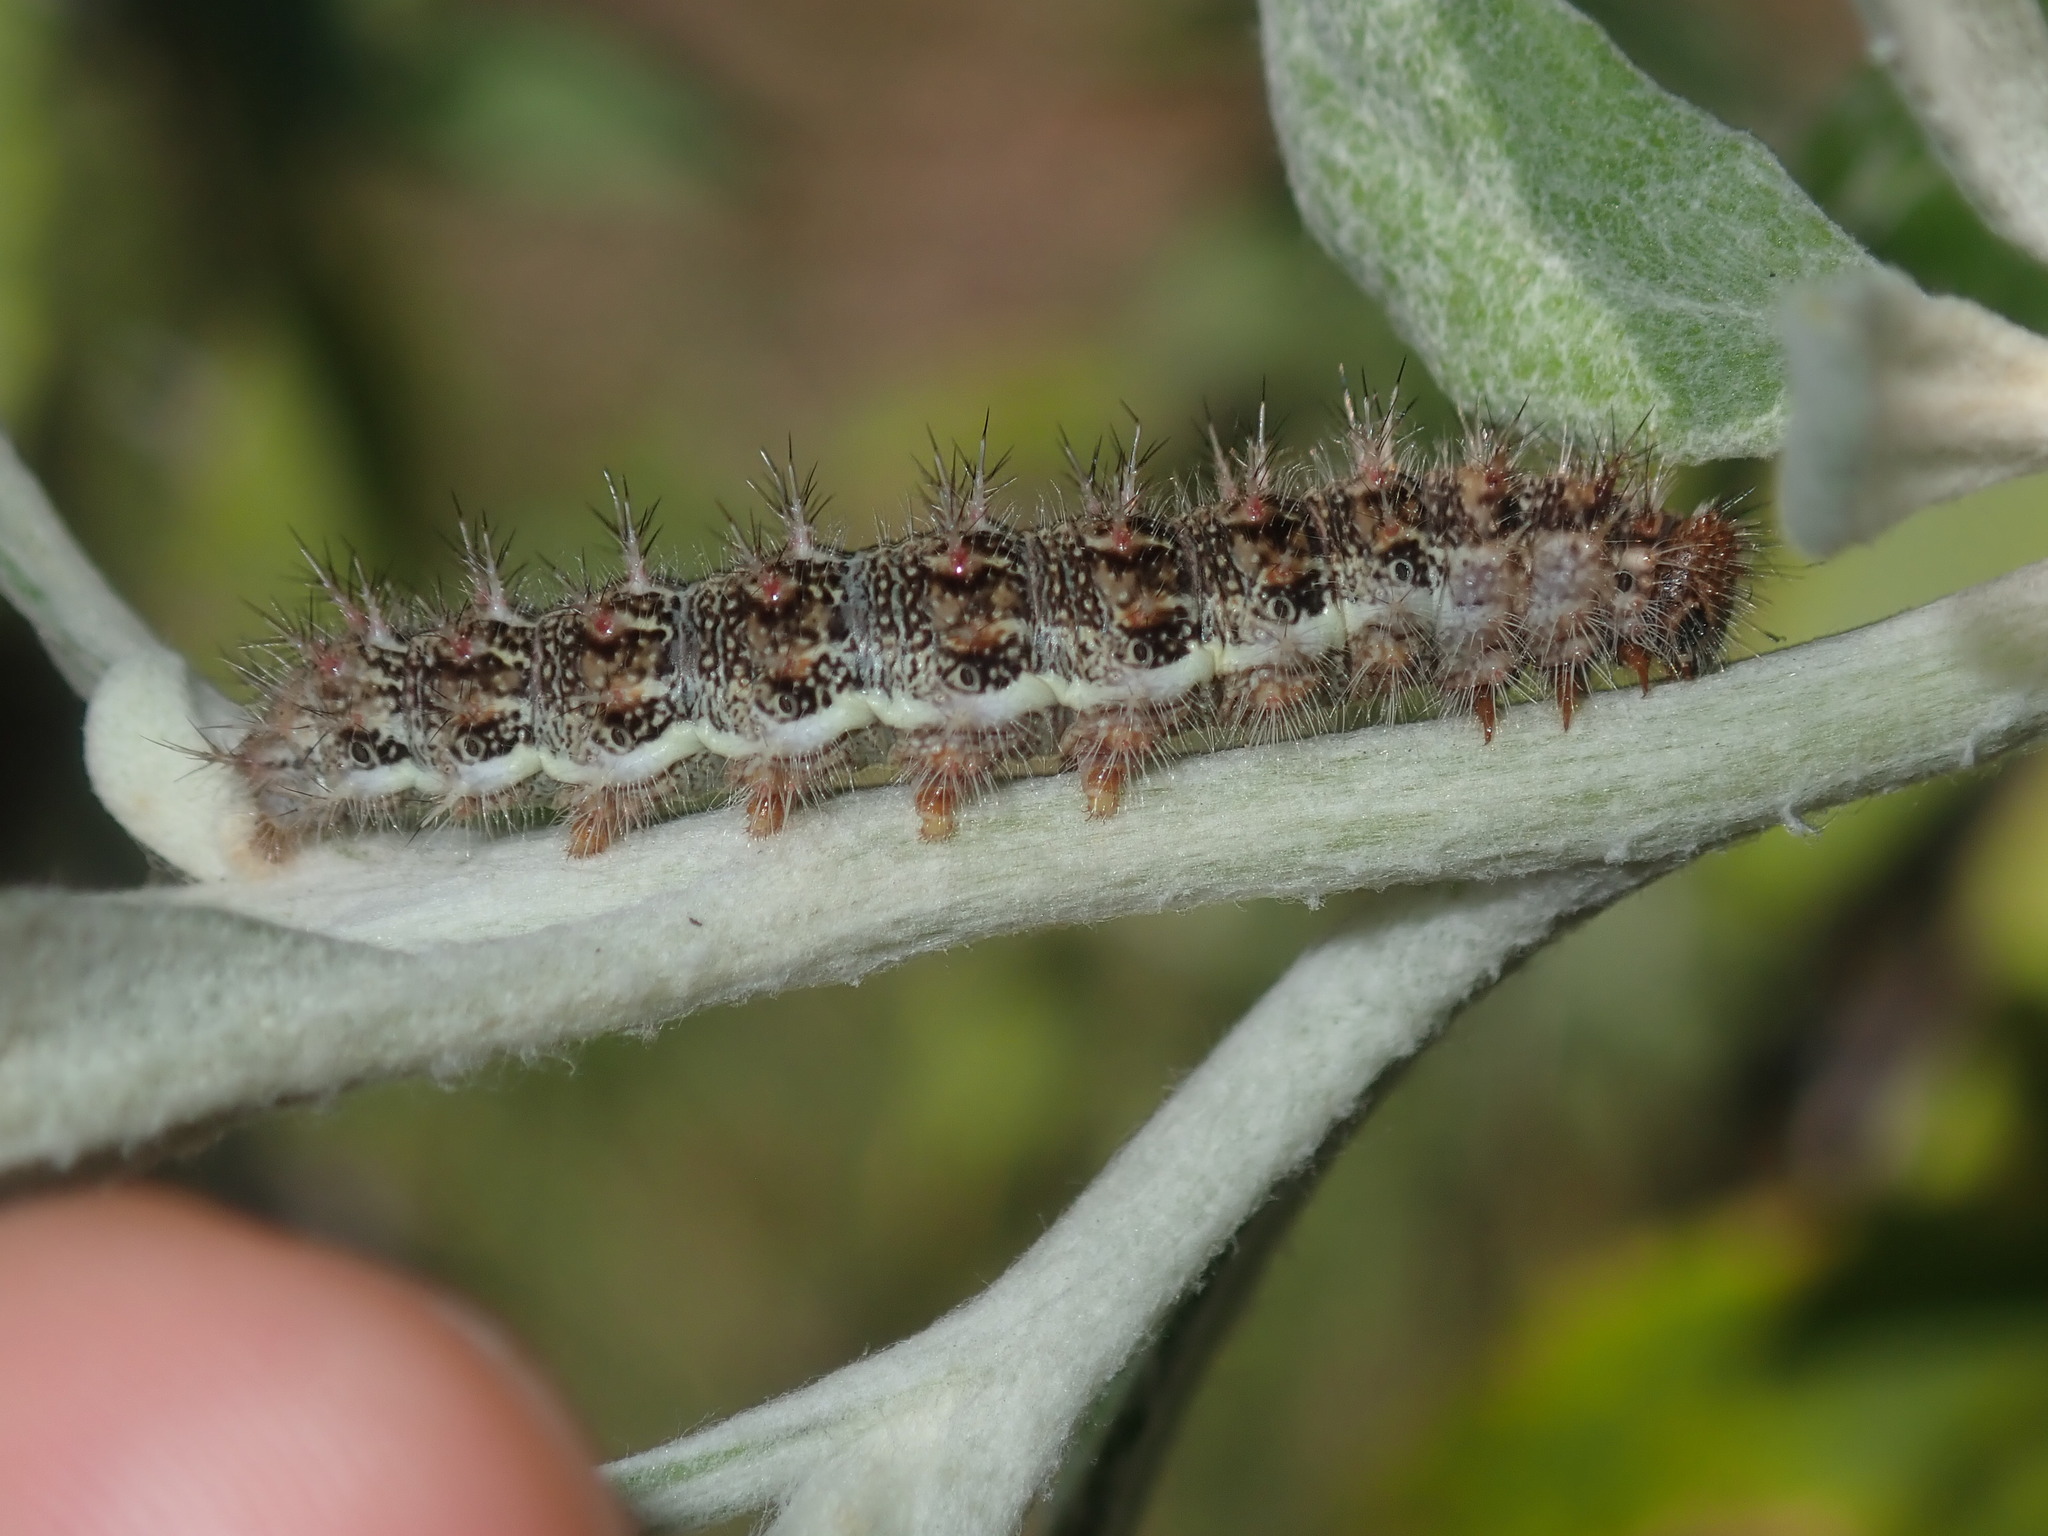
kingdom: Animalia
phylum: Arthropoda
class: Insecta
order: Lepidoptera
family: Nymphalidae
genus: Vanessa
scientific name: Vanessa kershawi
